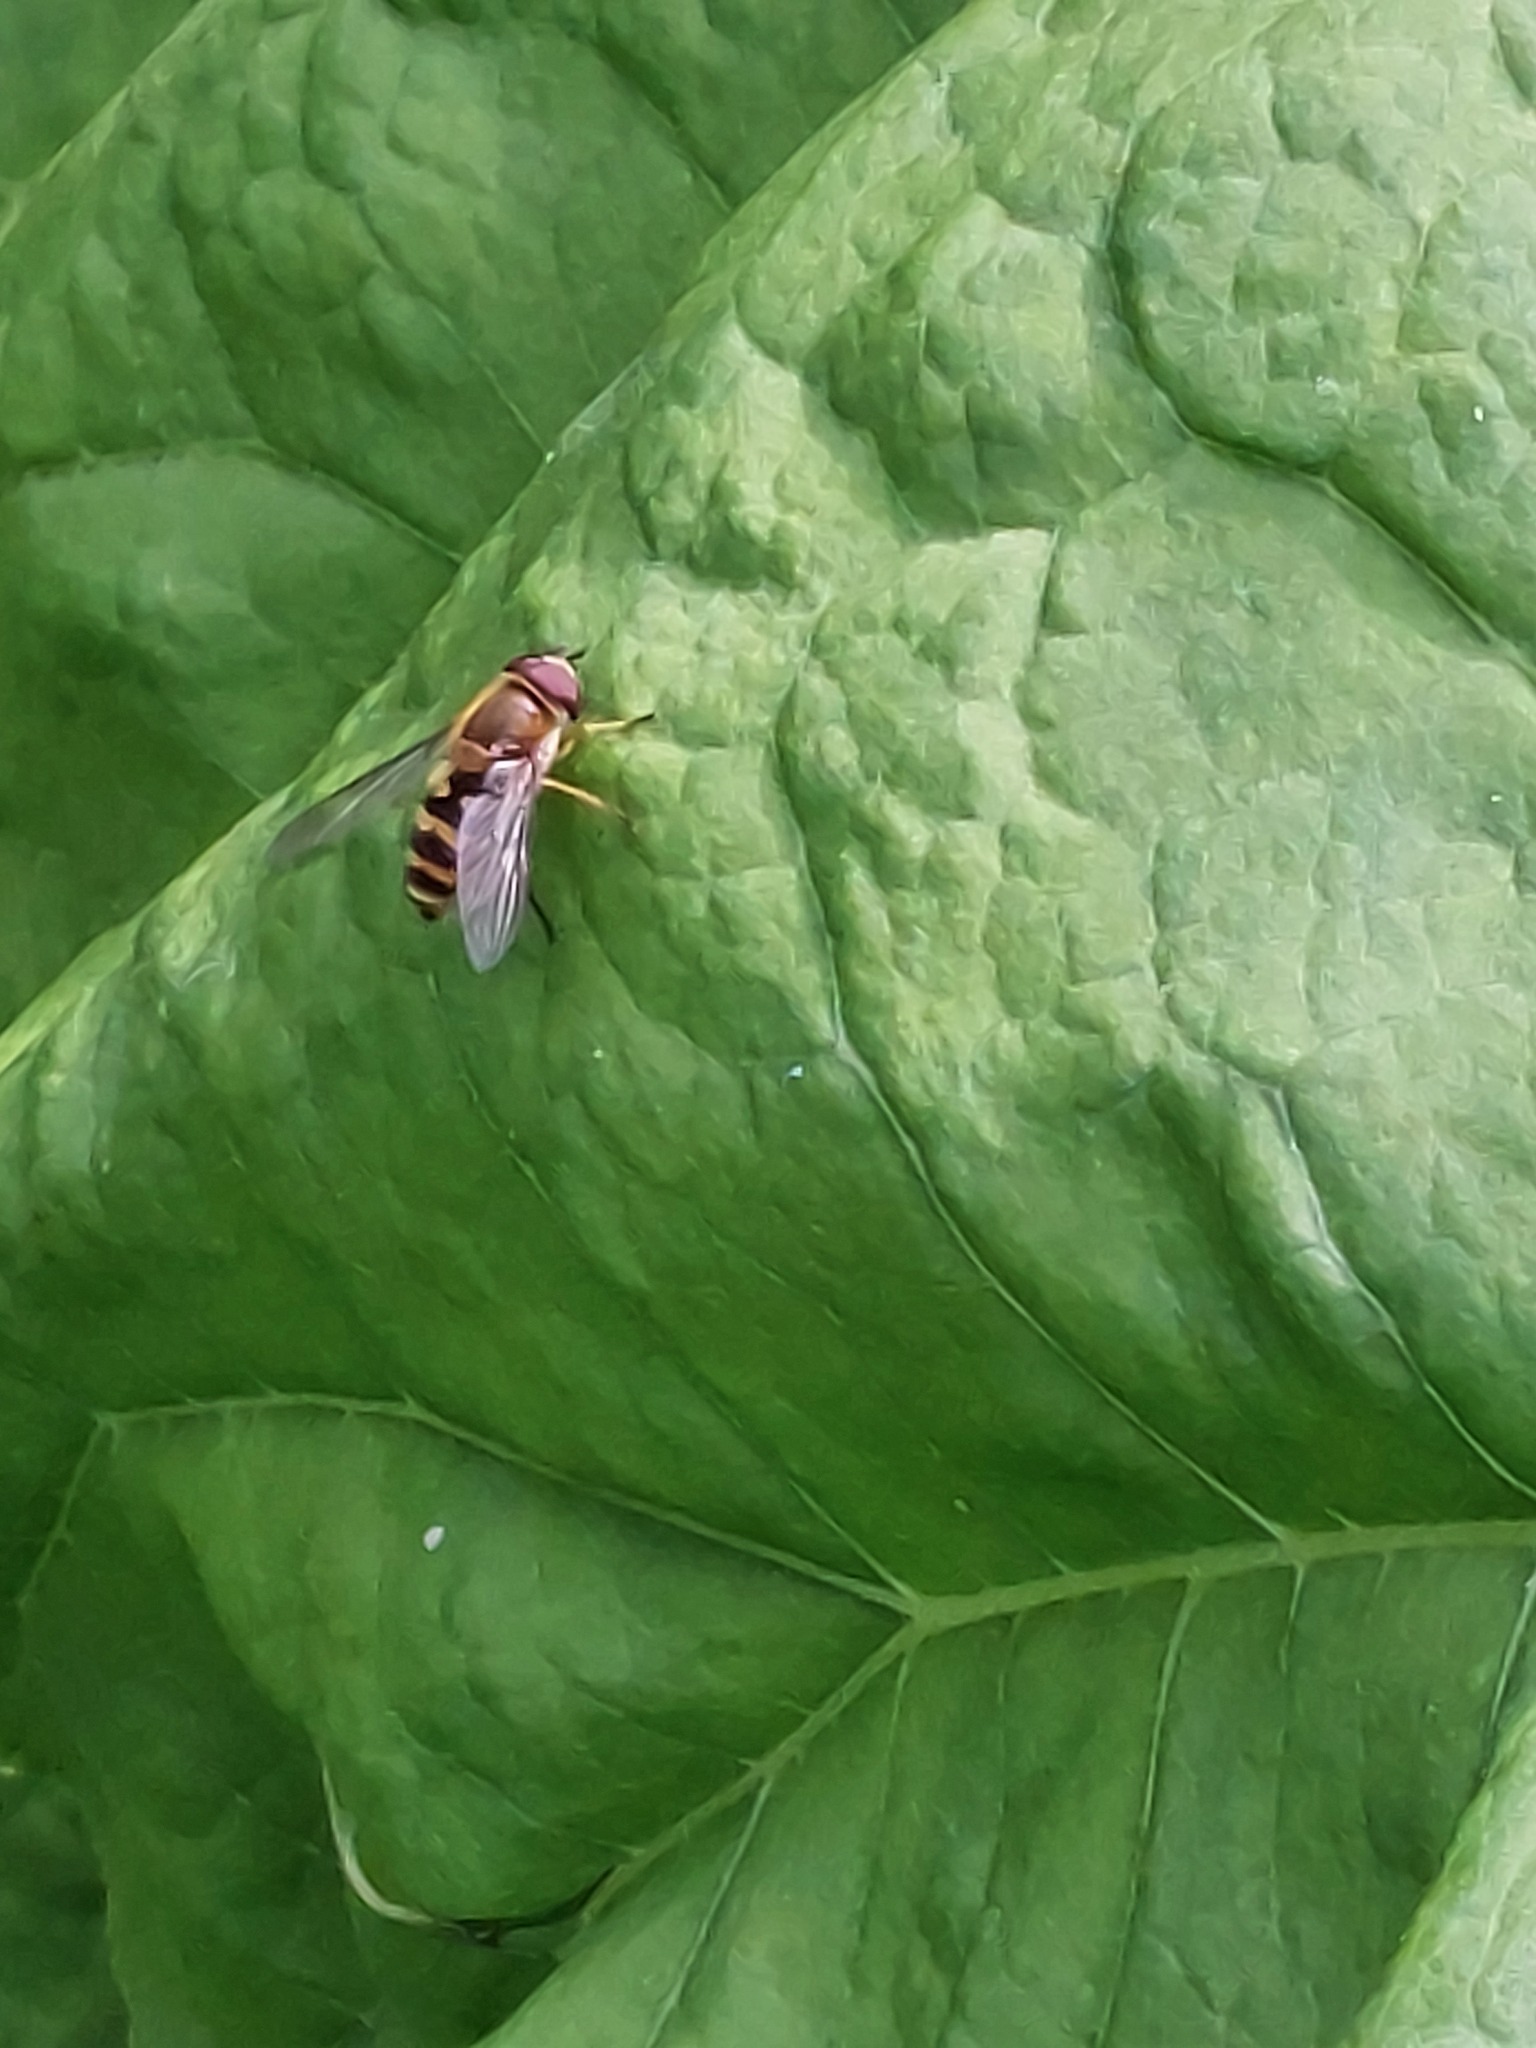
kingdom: Animalia
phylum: Arthropoda
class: Insecta
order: Diptera
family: Syrphidae
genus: Syrphus
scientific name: Syrphus
